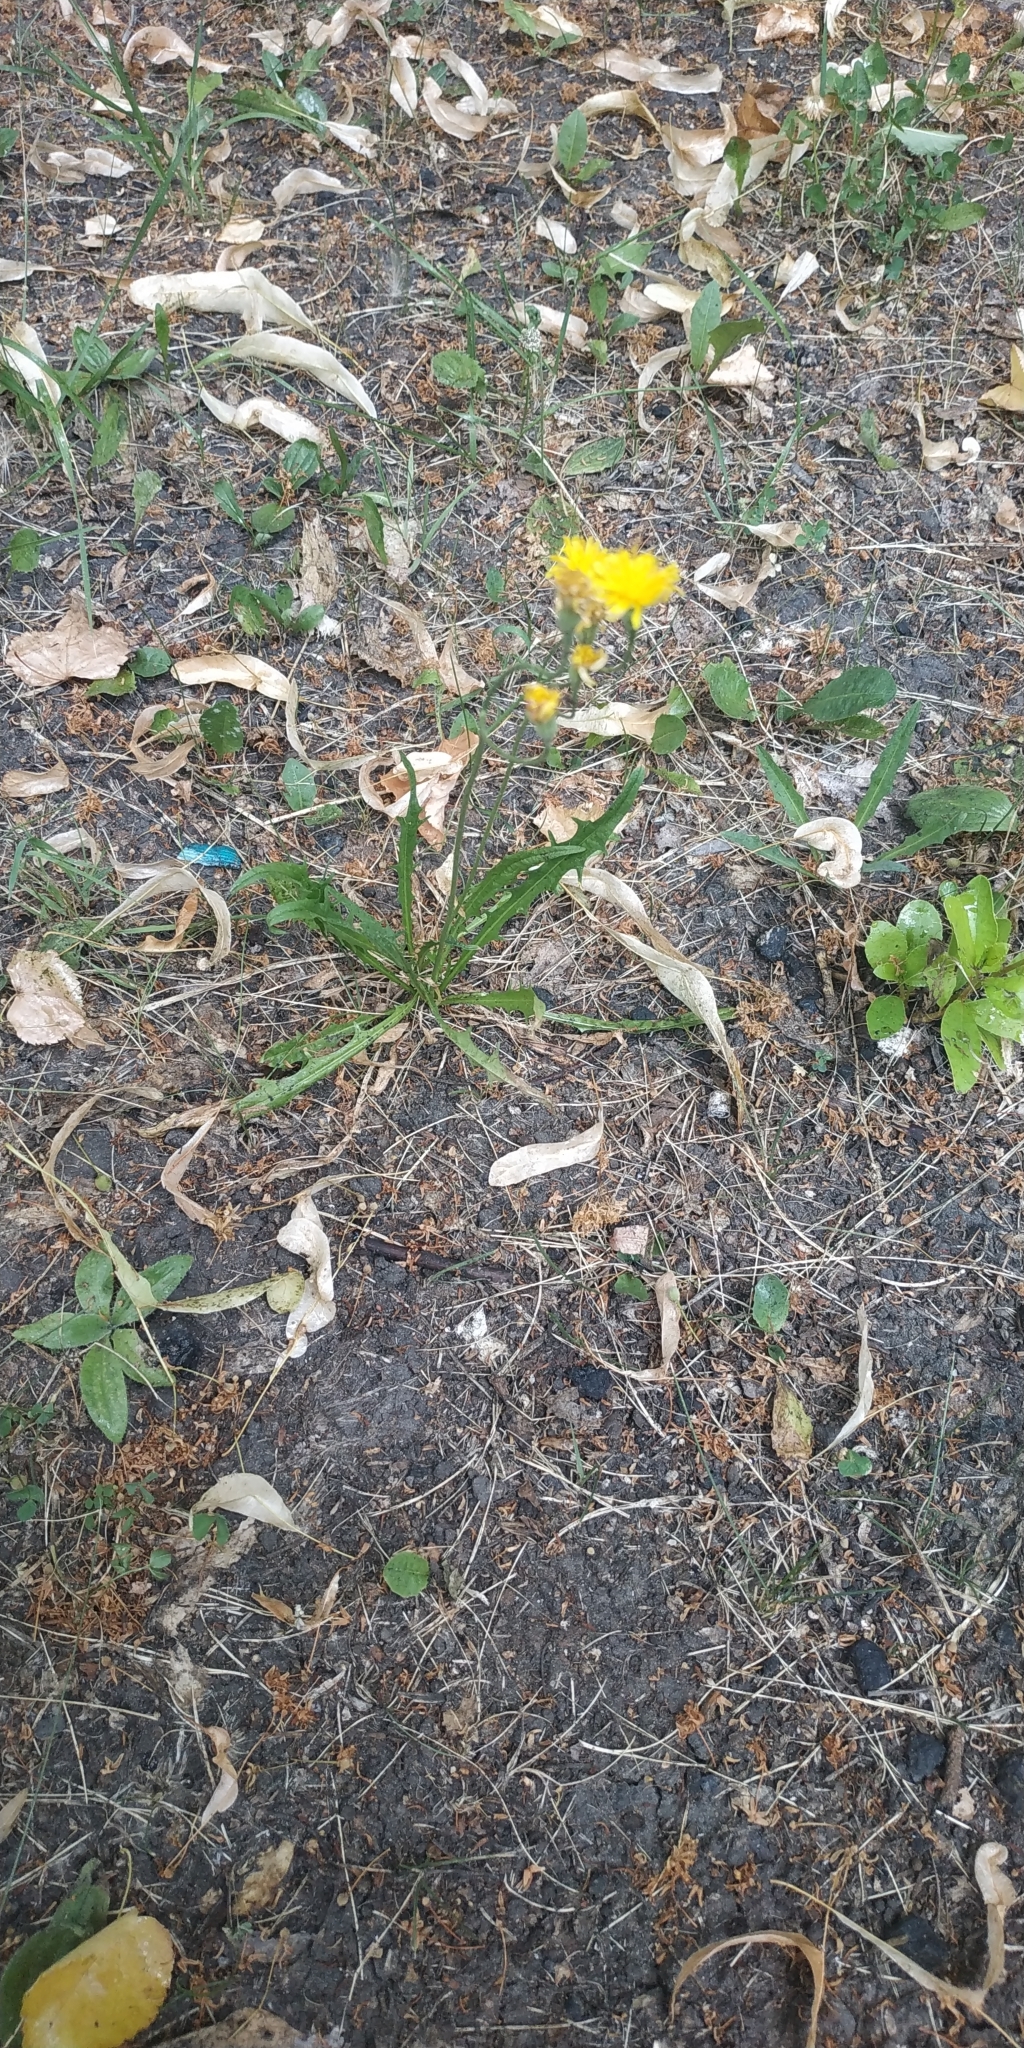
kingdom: Plantae
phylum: Tracheophyta
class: Magnoliopsida
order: Asterales
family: Asteraceae
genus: Scorzoneroides
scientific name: Scorzoneroides autumnalis
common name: Autumn hawkbit
